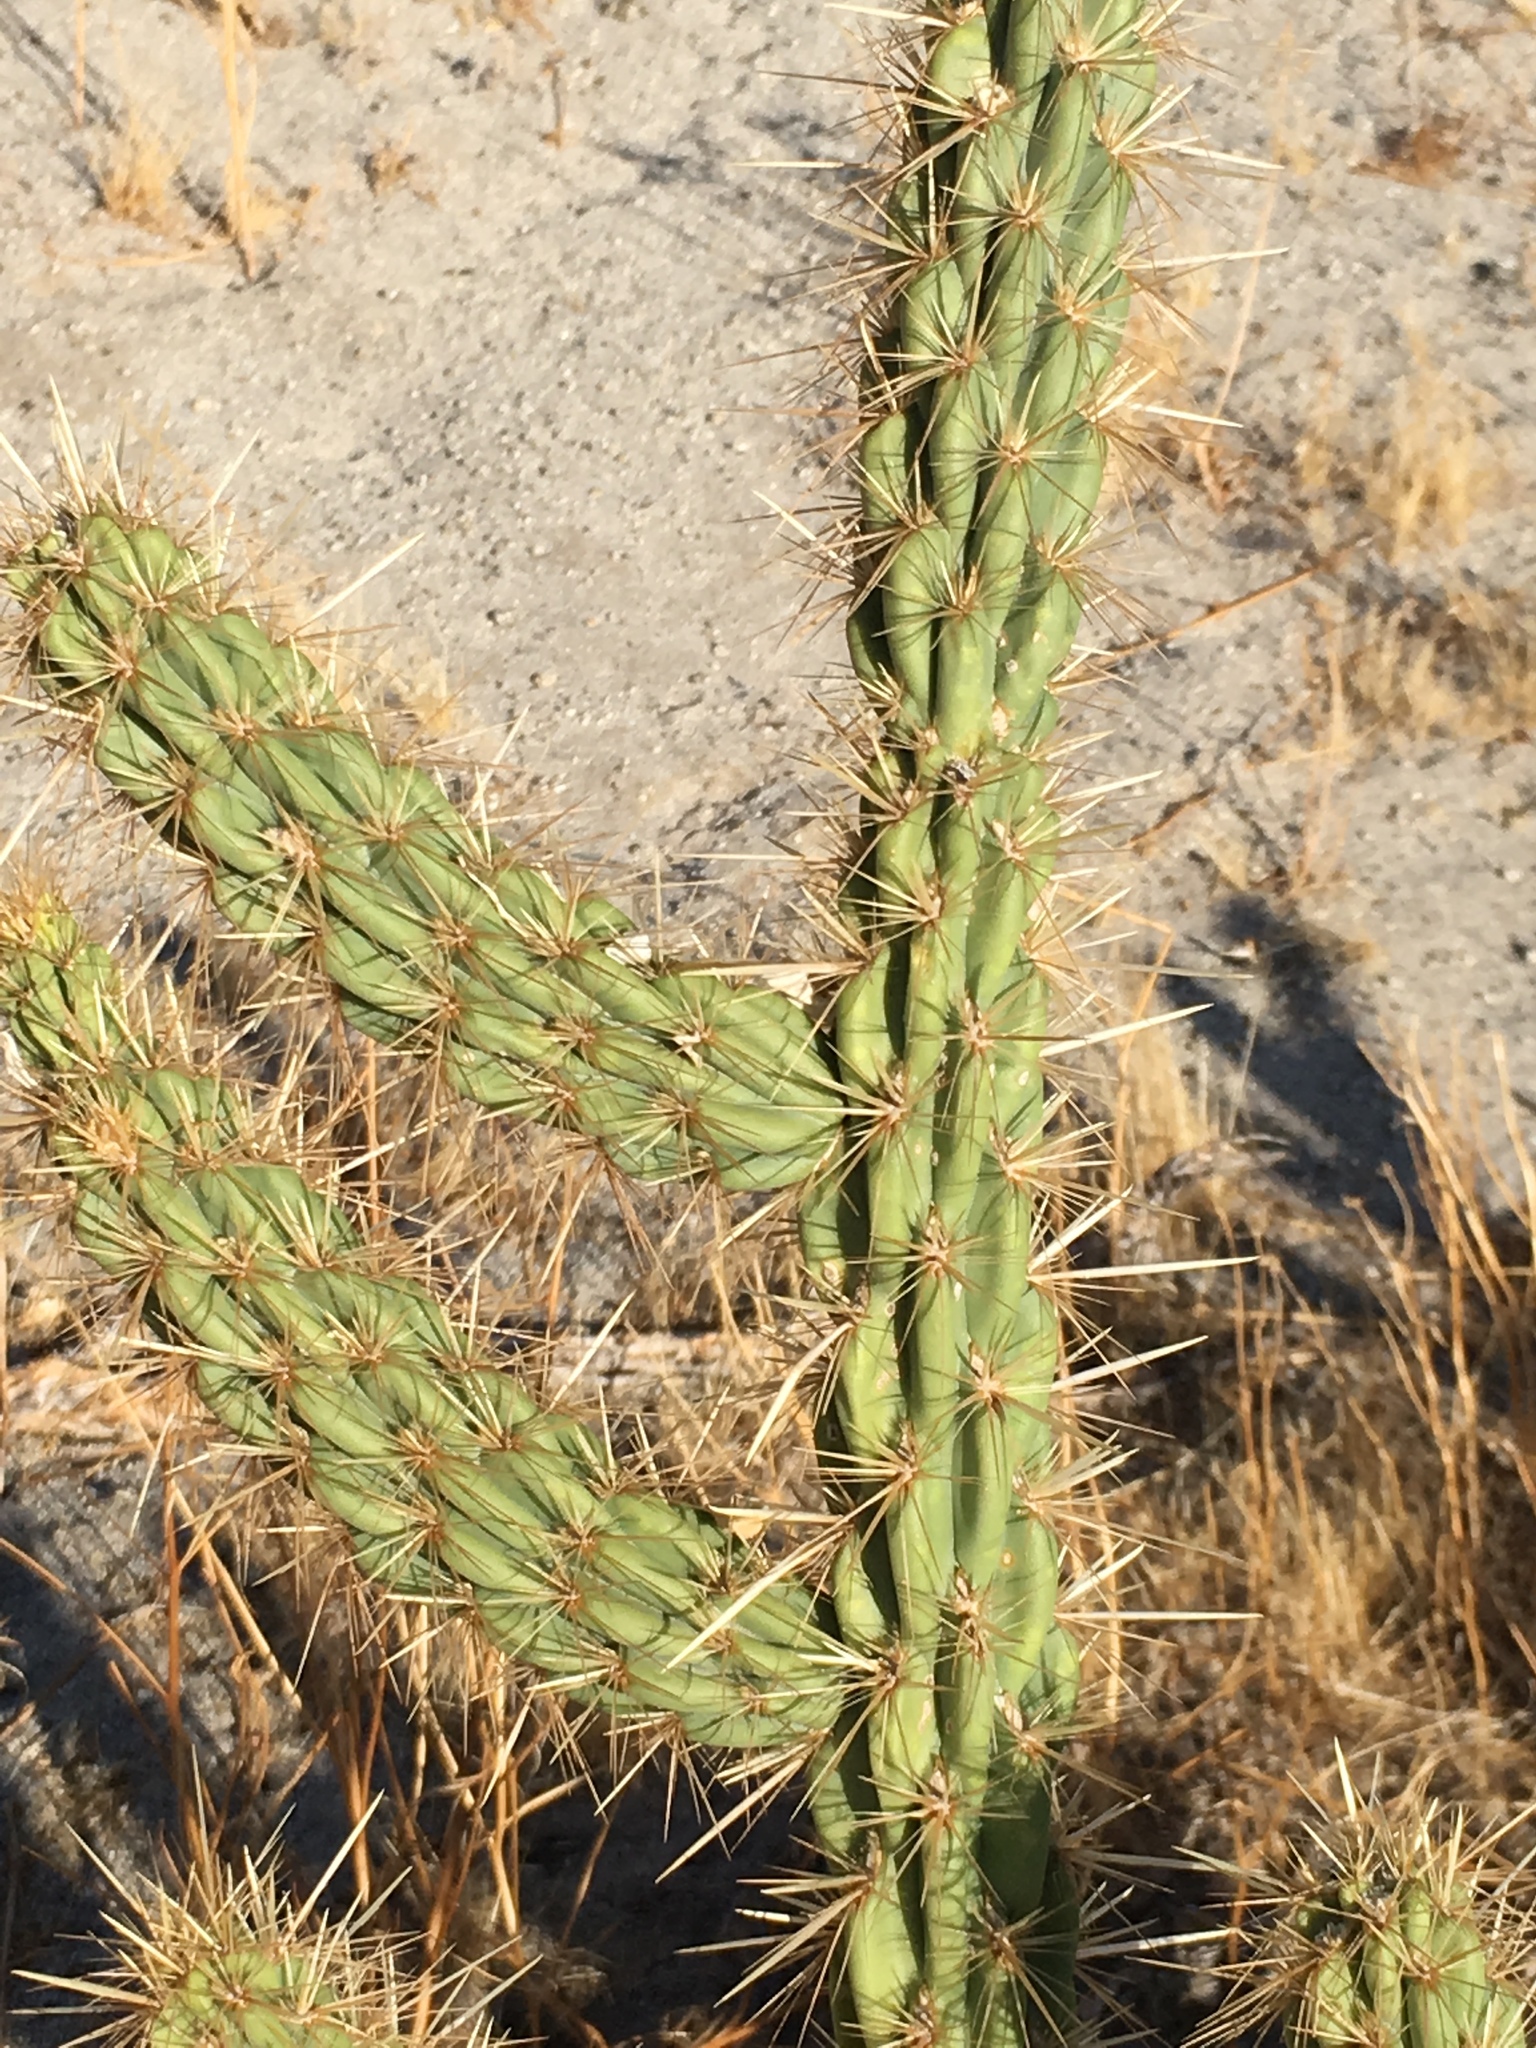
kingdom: Plantae
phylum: Tracheophyta
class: Magnoliopsida
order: Caryophyllales
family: Cactaceae
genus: Cylindropuntia
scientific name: Cylindropuntia ganderi
